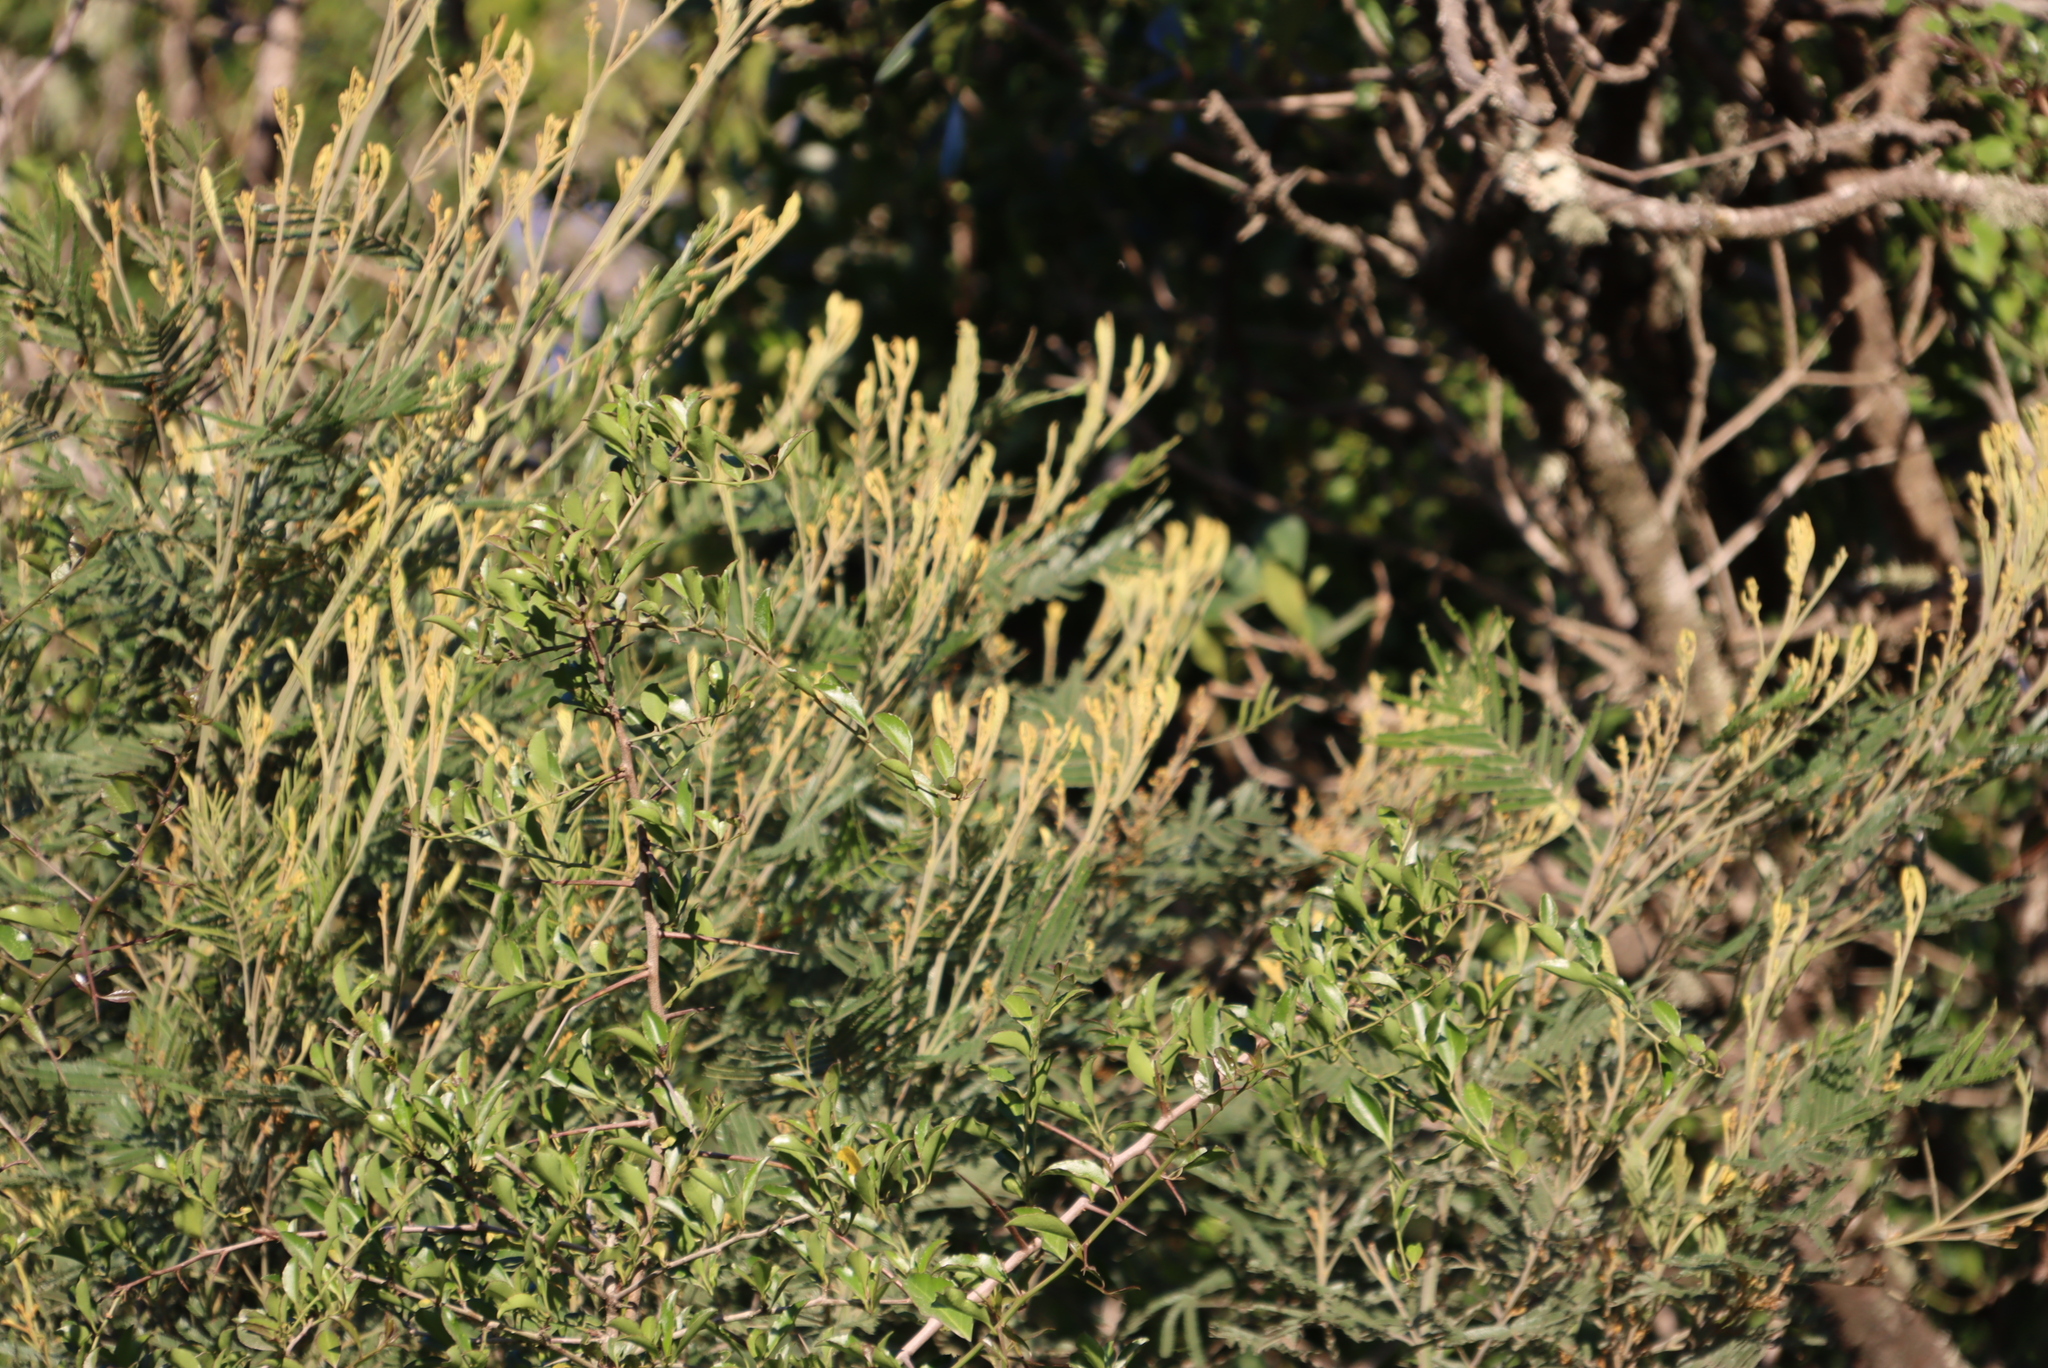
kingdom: Plantae
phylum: Tracheophyta
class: Magnoliopsida
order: Fabales
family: Fabaceae
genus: Acacia
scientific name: Acacia mearnsii
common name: Black wattle
